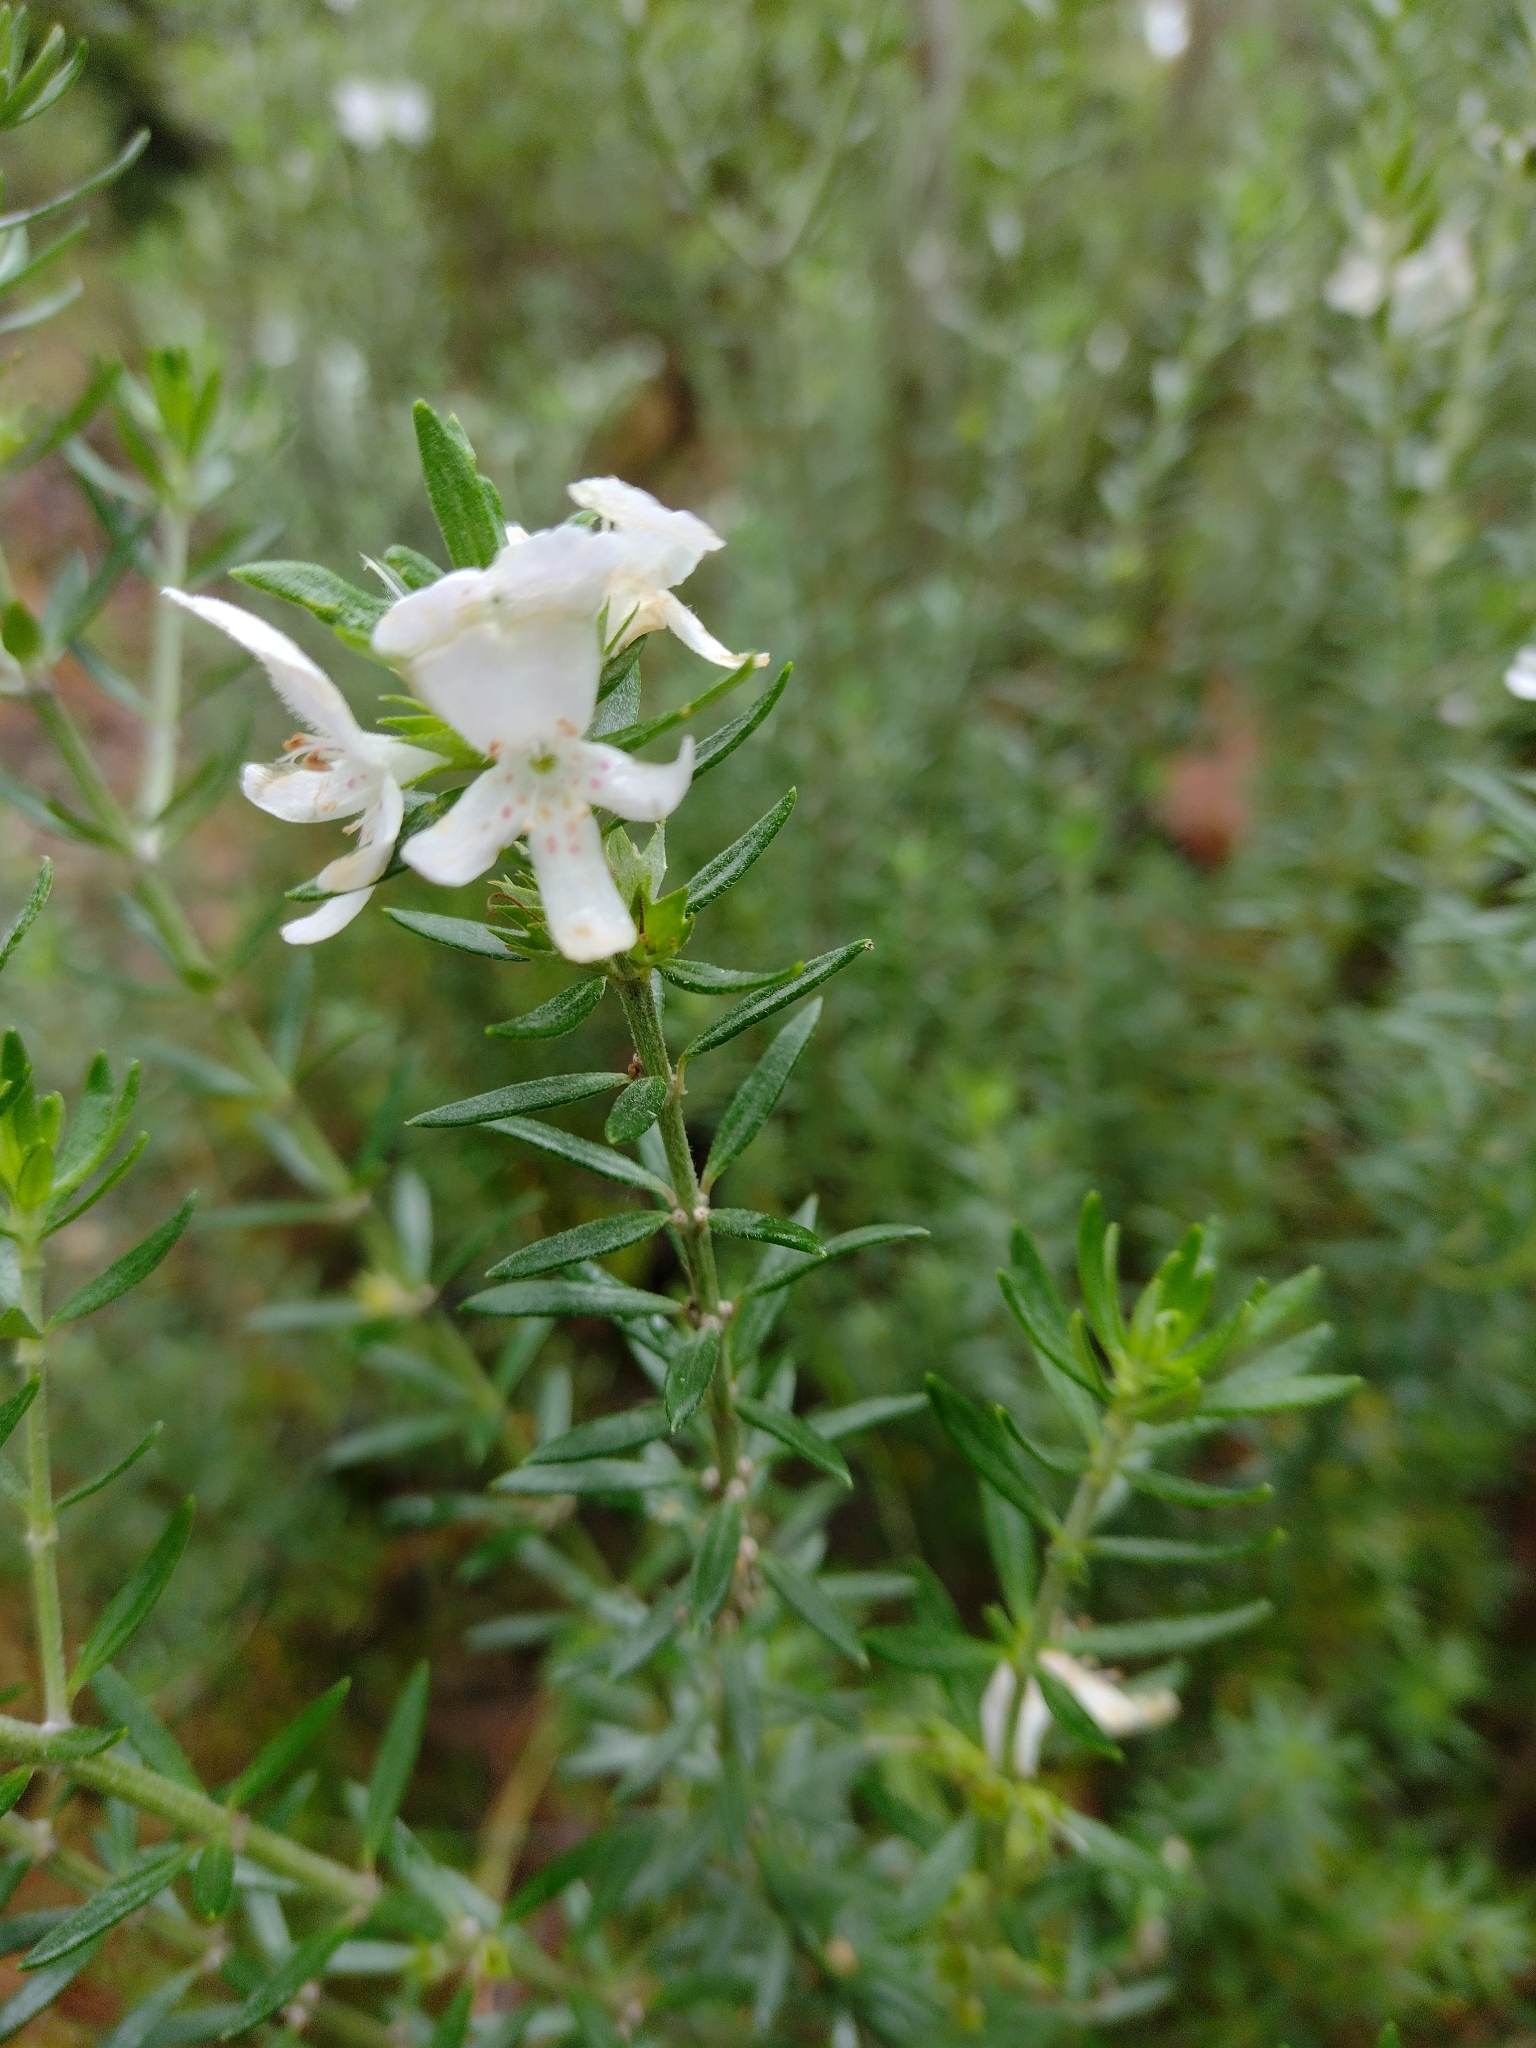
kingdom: Plantae
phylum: Tracheophyta
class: Magnoliopsida
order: Lamiales
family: Lamiaceae
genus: Westringia
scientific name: Westringia fruticosa
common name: Coastal-rosemary
